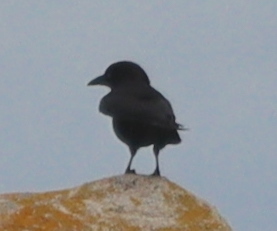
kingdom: Animalia
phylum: Chordata
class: Aves
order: Passeriformes
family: Corvidae
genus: Corvus
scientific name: Corvus corone
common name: Carrion crow
